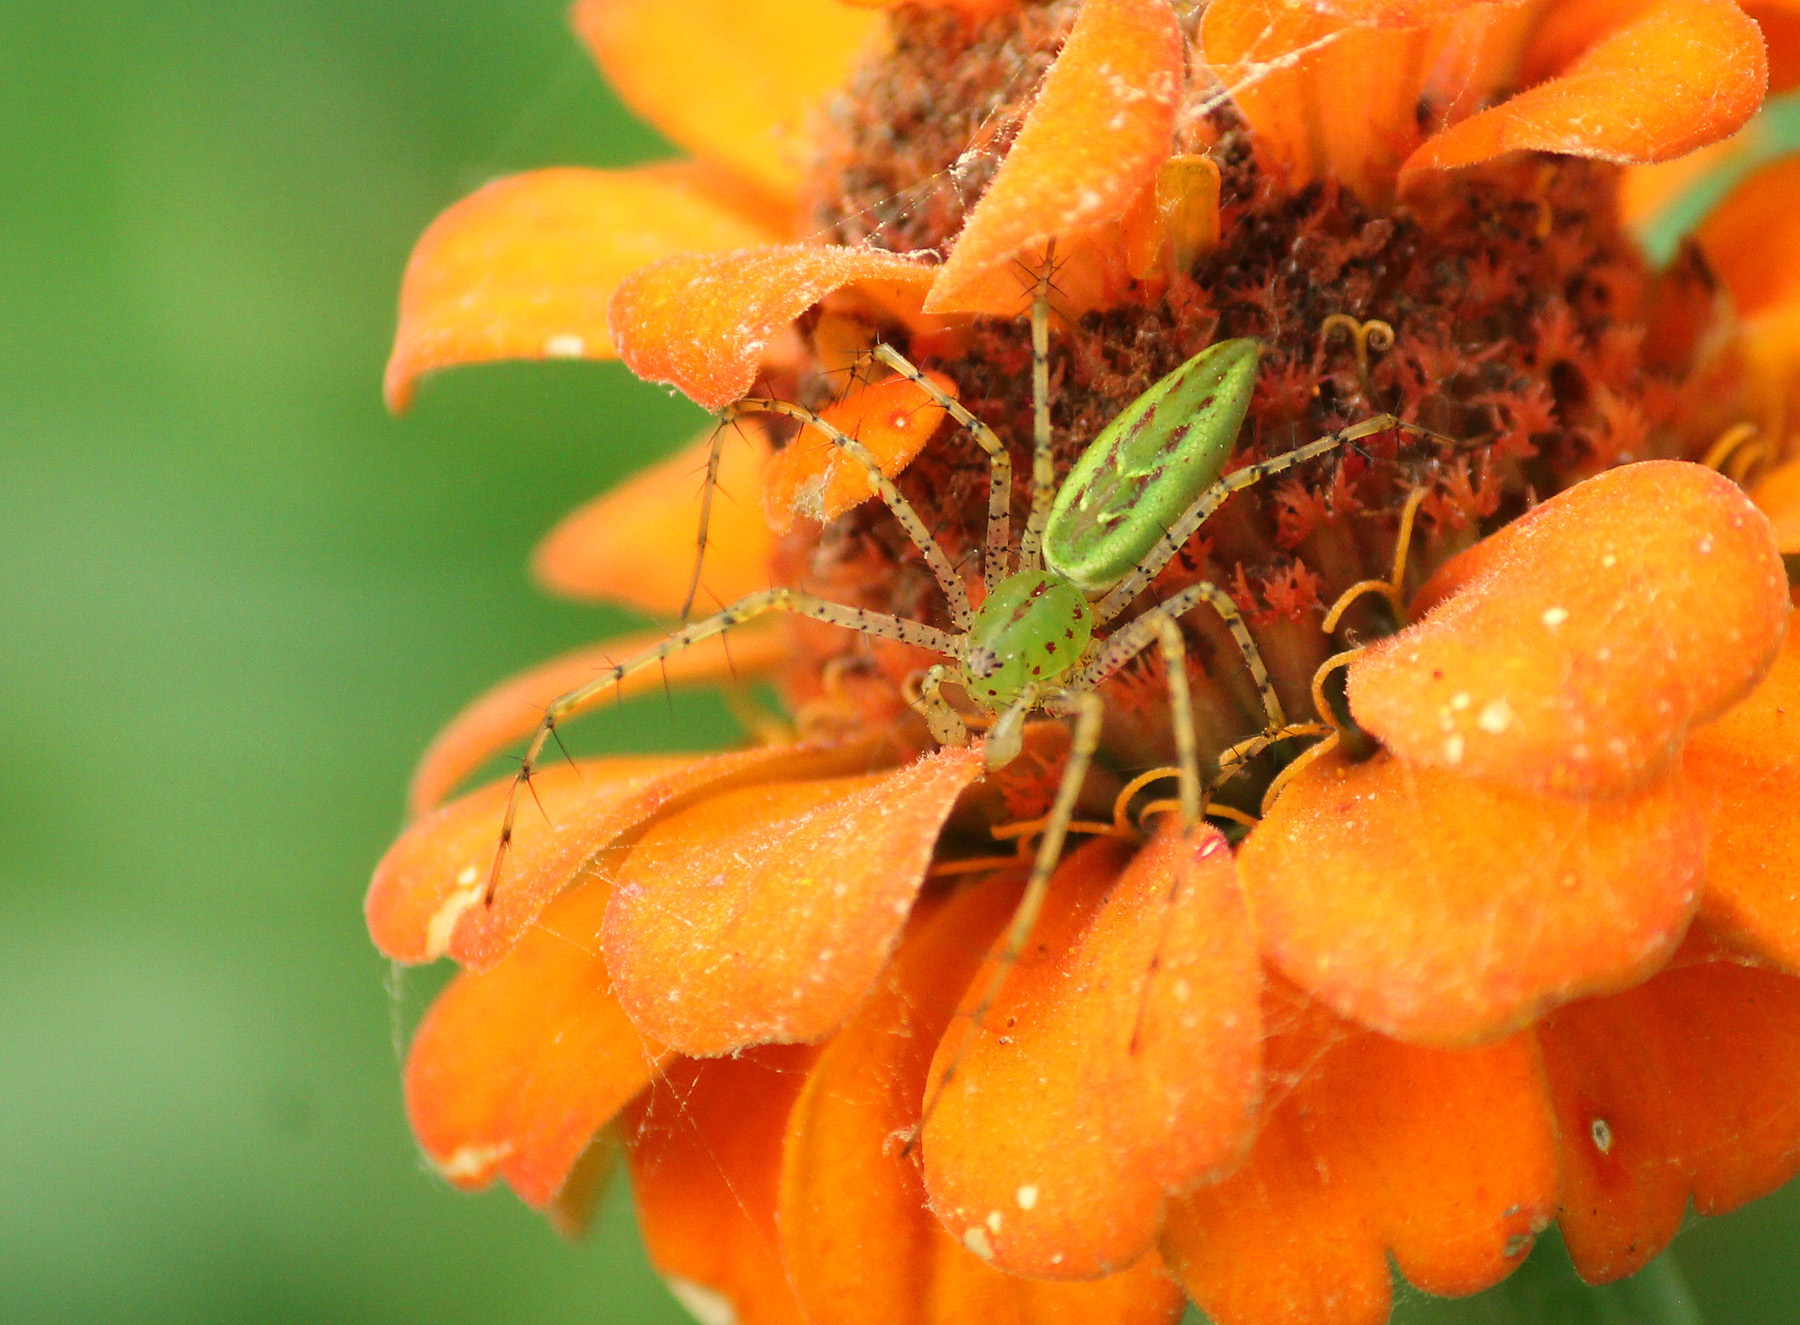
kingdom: Animalia
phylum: Arthropoda
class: Arachnida
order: Araneae
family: Oxyopidae
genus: Peucetia
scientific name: Peucetia viridans
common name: Lynx spiders
